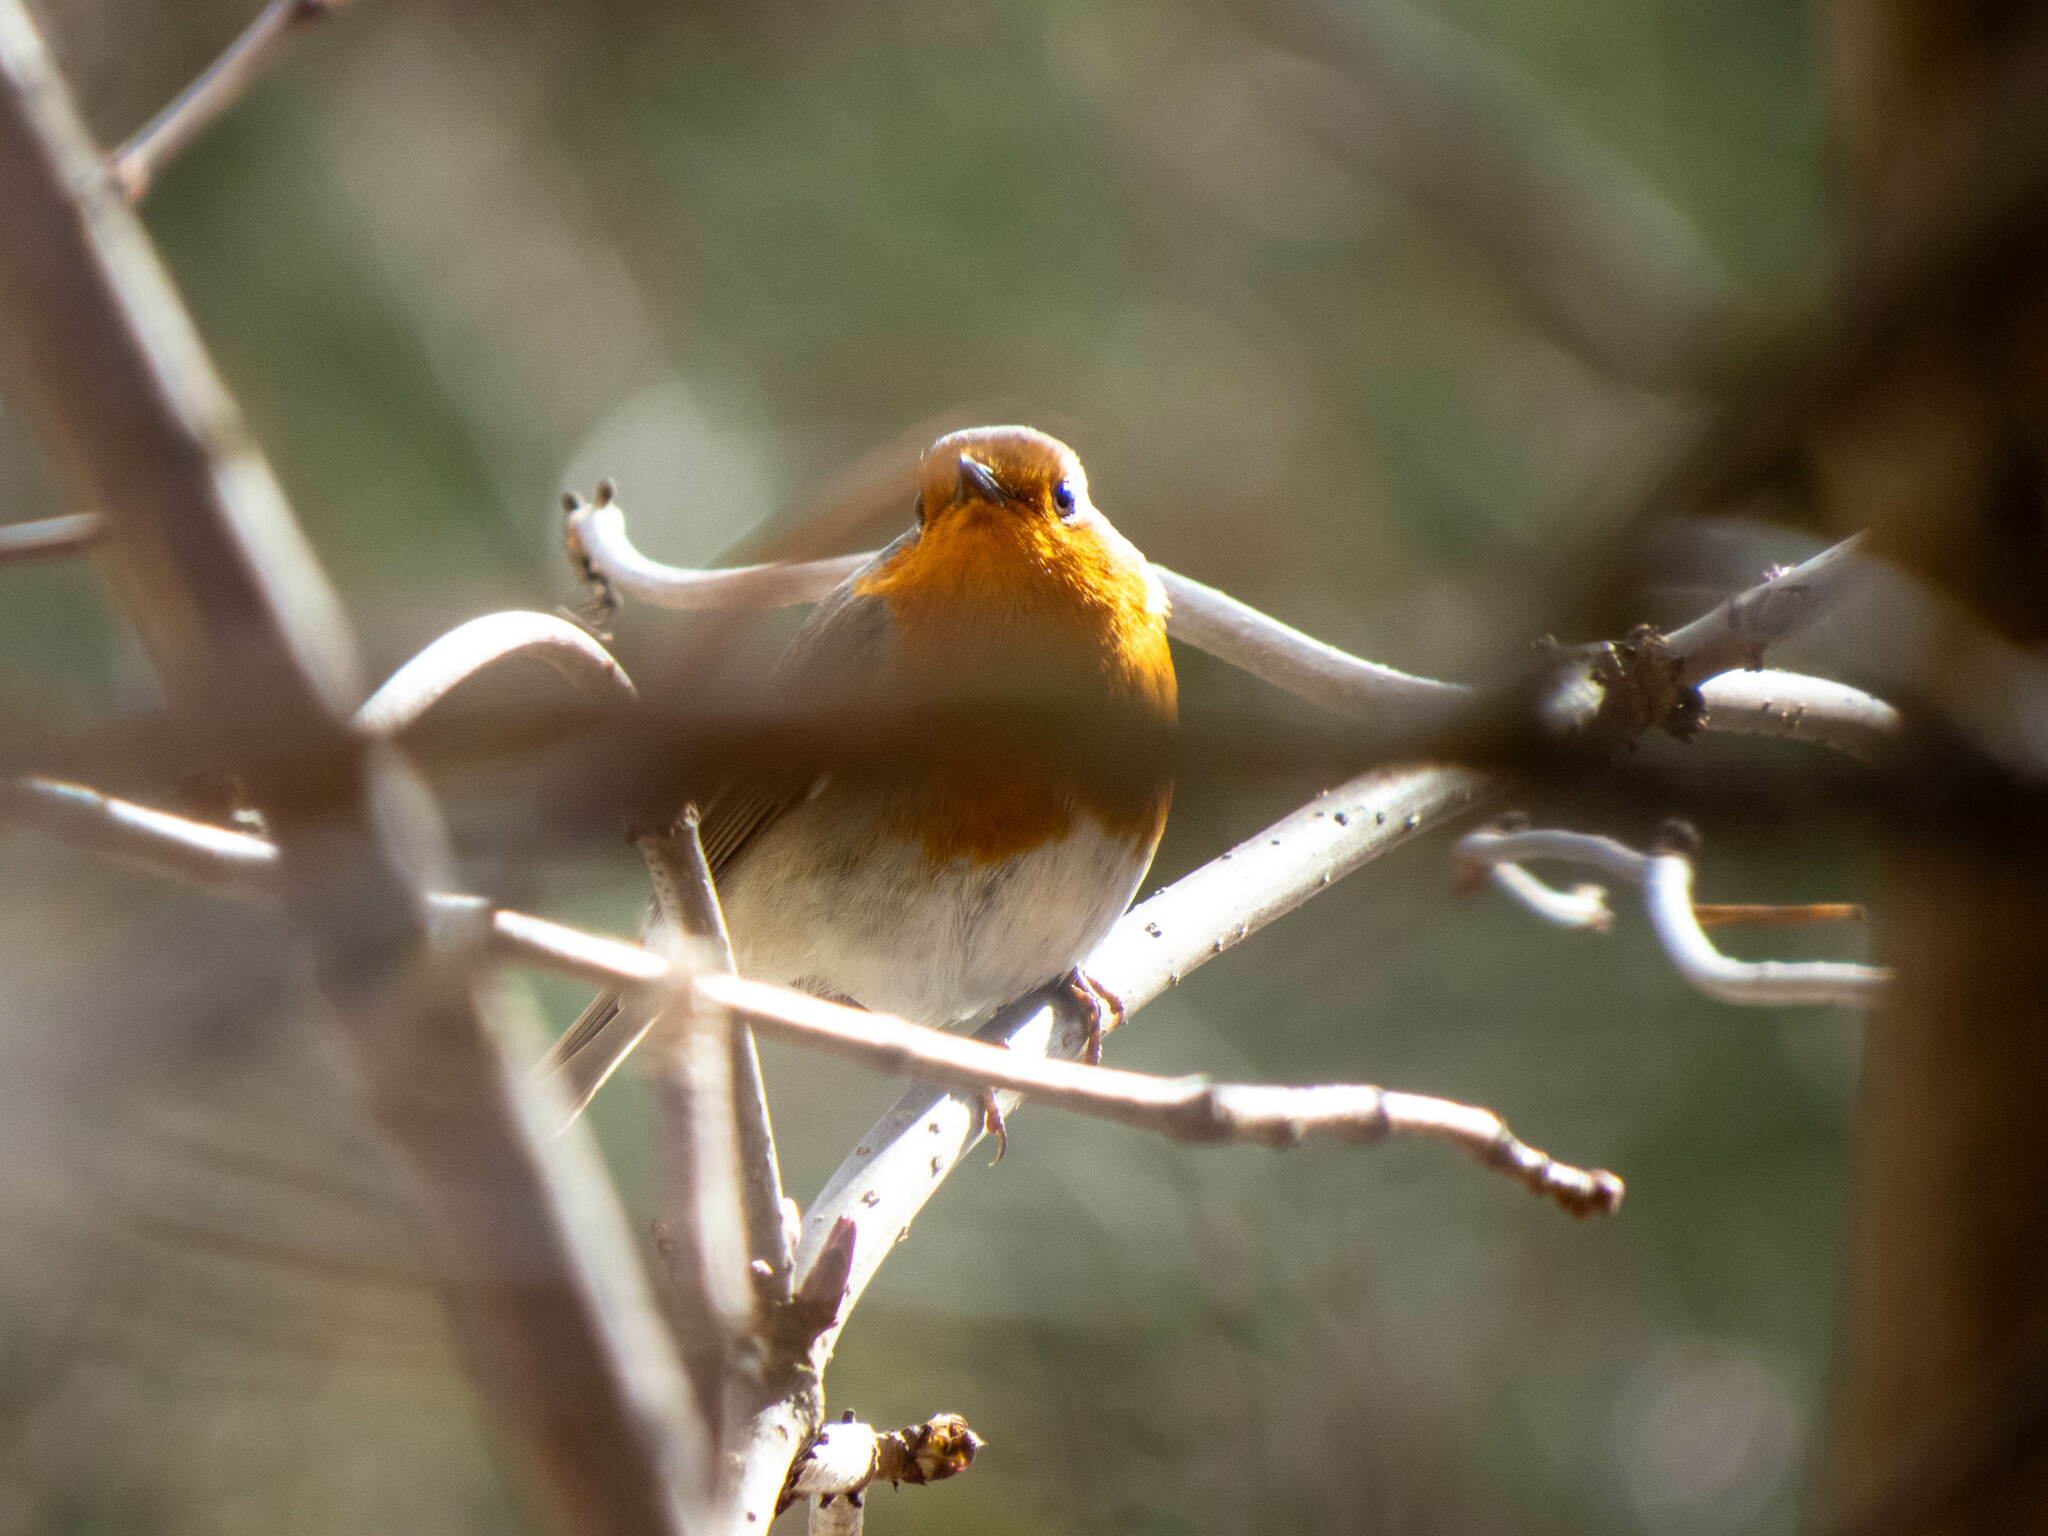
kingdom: Animalia
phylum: Chordata
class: Aves
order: Passeriformes
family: Muscicapidae
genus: Erithacus
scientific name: Erithacus rubecula
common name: European robin
